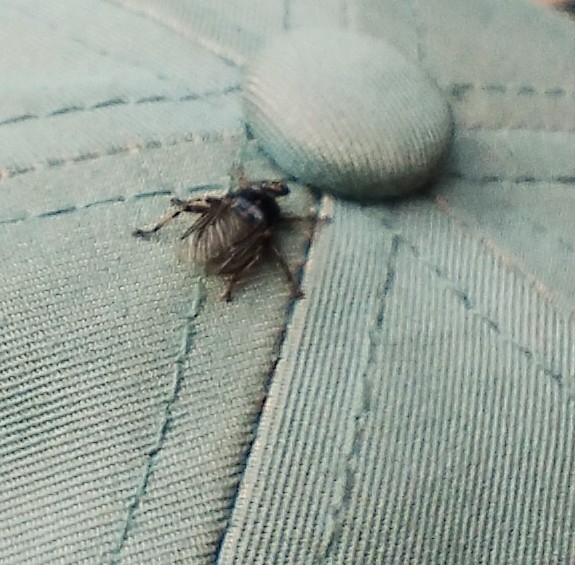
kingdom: Animalia
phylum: Arthropoda
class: Insecta
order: Diptera
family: Hippoboscidae
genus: Hippobosca
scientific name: Hippobosca equina
